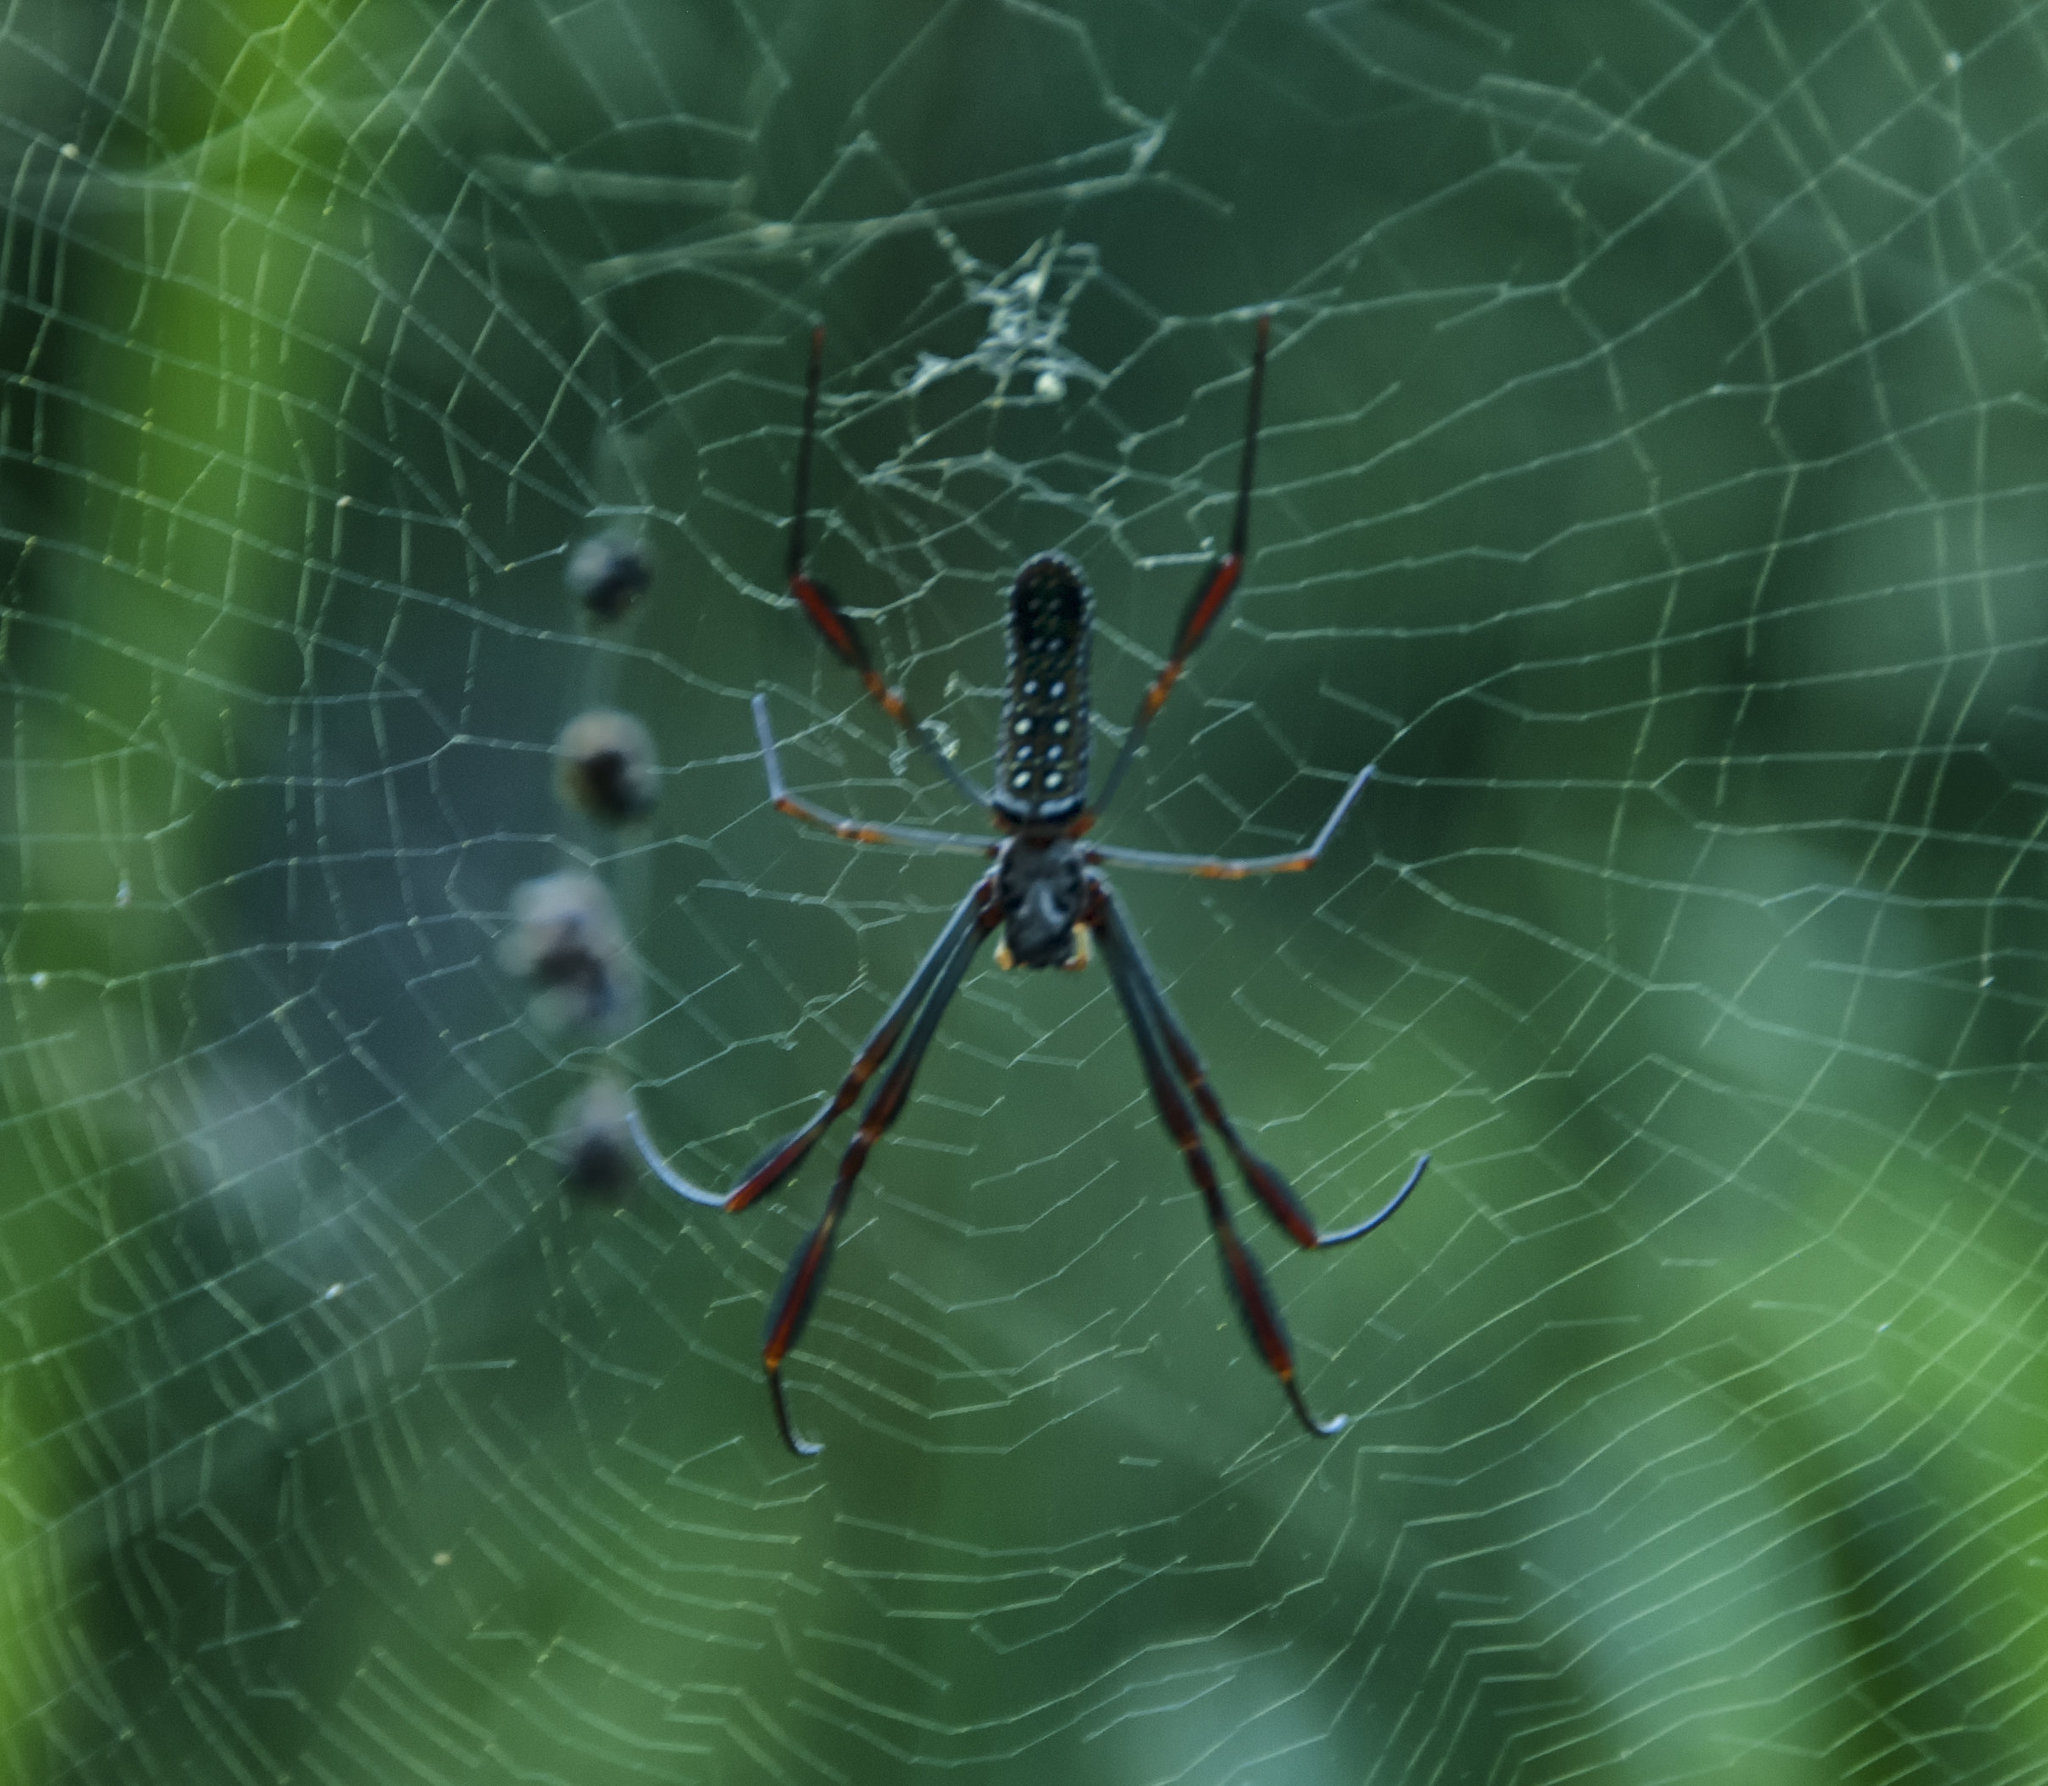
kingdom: Animalia
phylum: Arthropoda
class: Arachnida
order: Araneae
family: Araneidae
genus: Trichonephila
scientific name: Trichonephila clavipes
